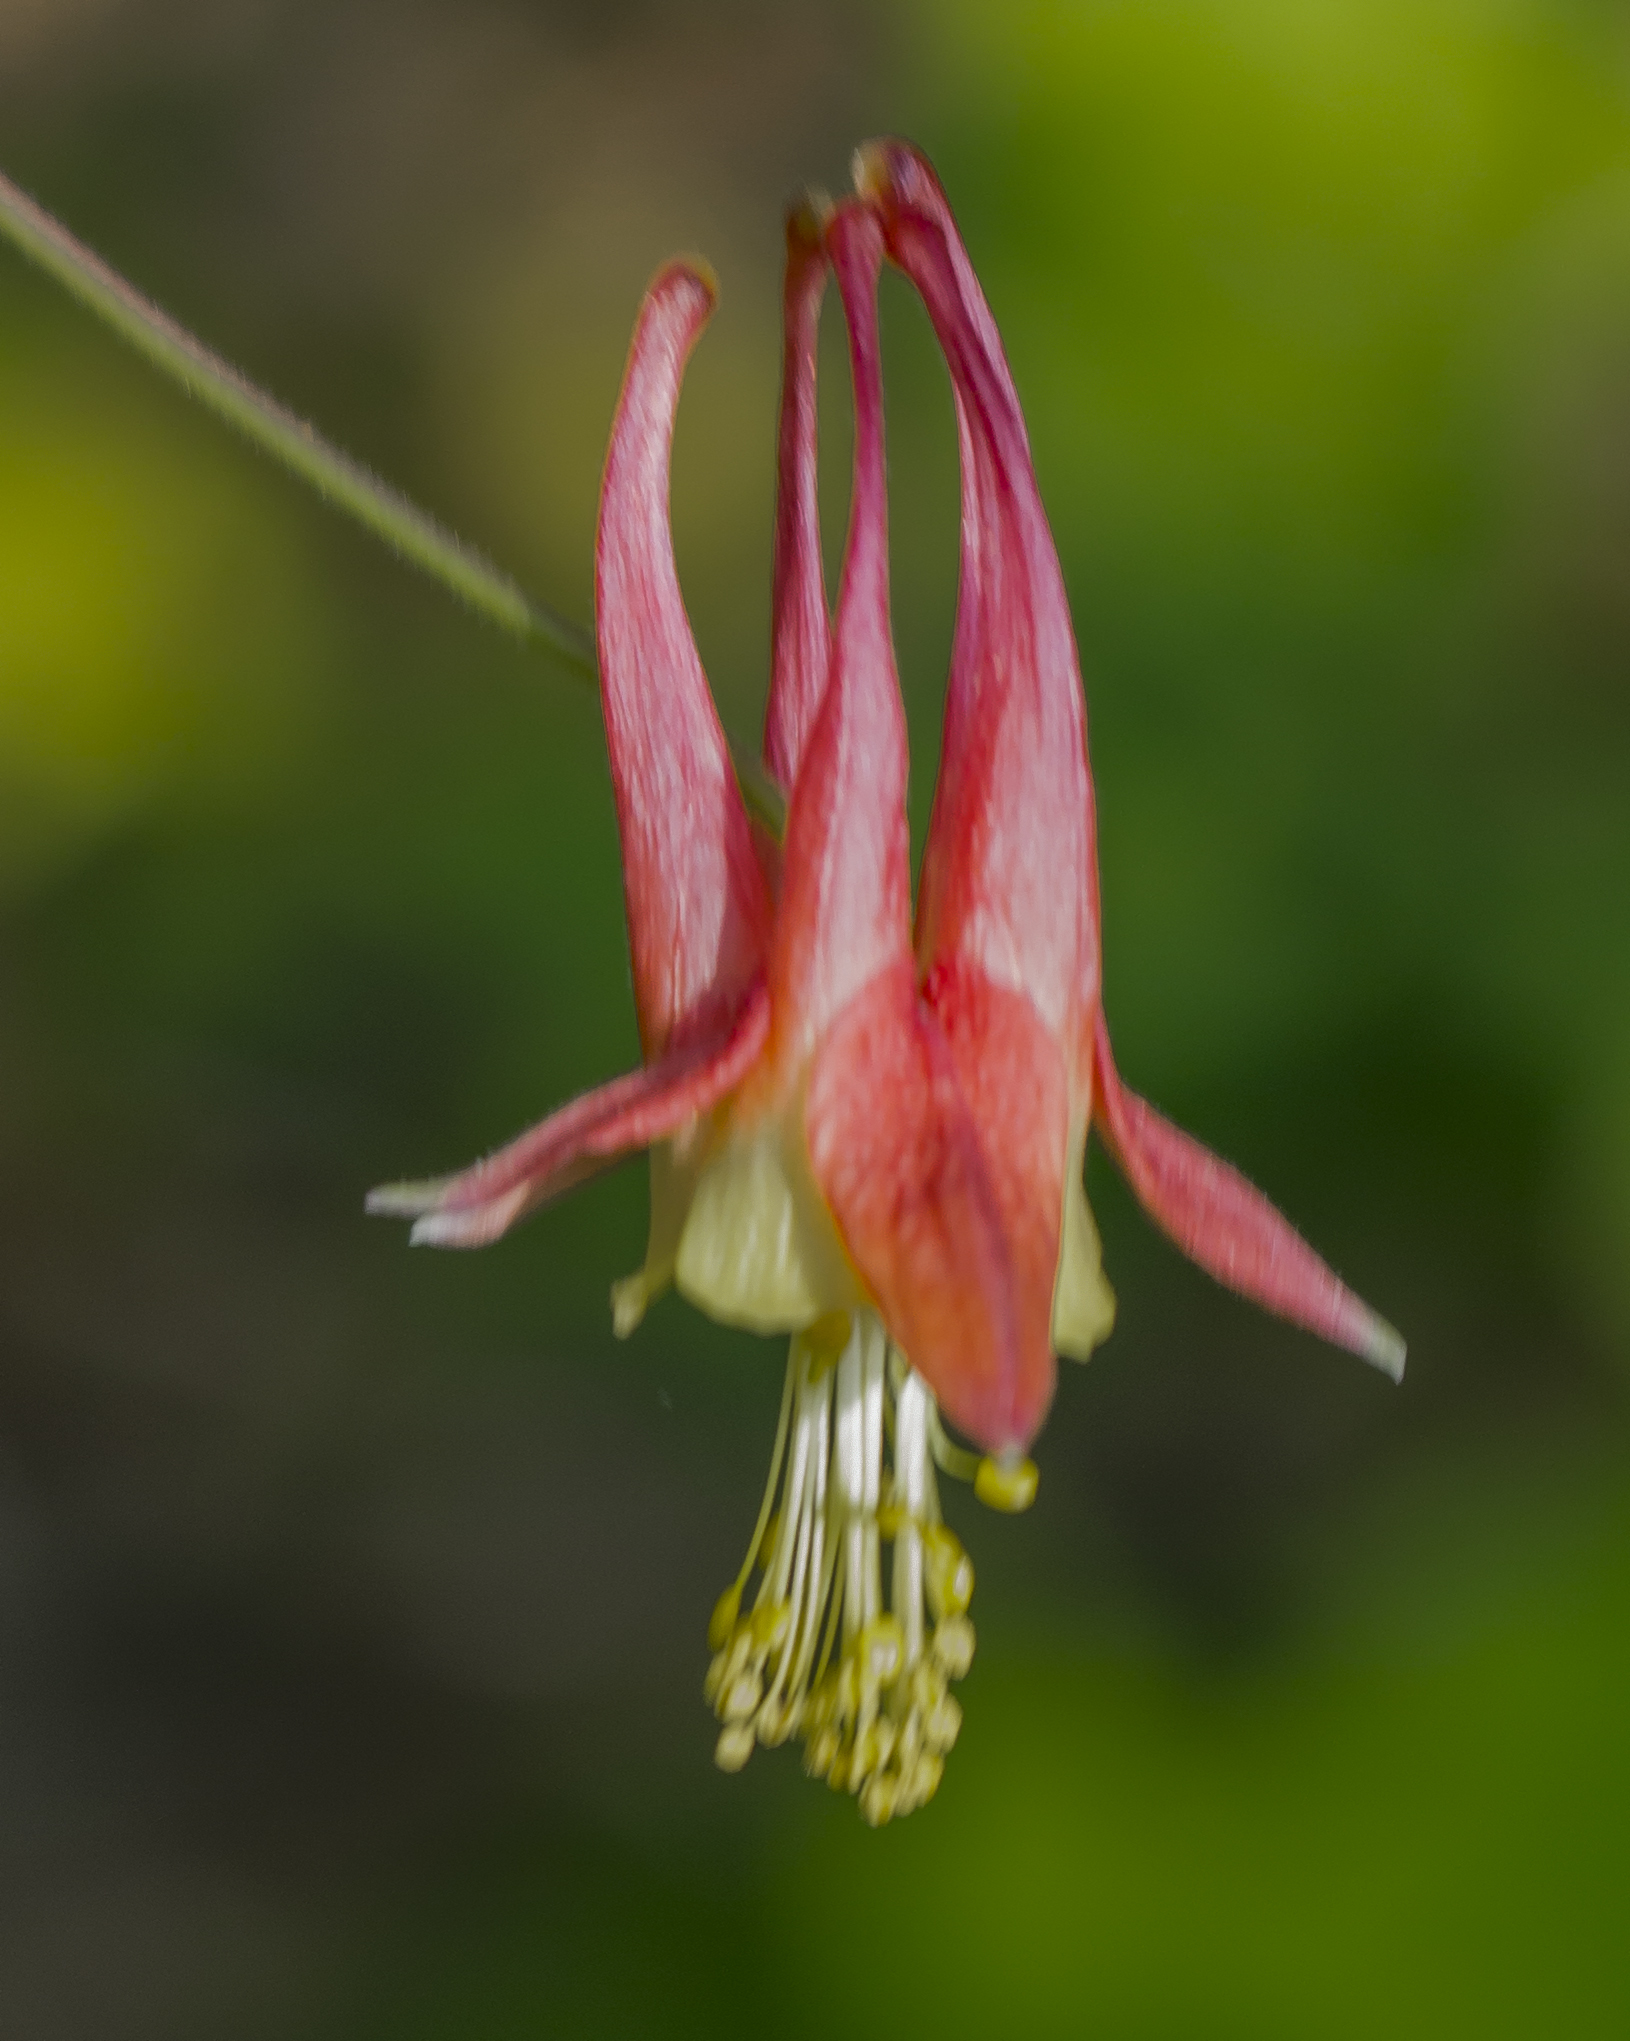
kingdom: Plantae
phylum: Tracheophyta
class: Magnoliopsida
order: Ranunculales
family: Ranunculaceae
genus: Aquilegia
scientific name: Aquilegia canadensis
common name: American columbine
